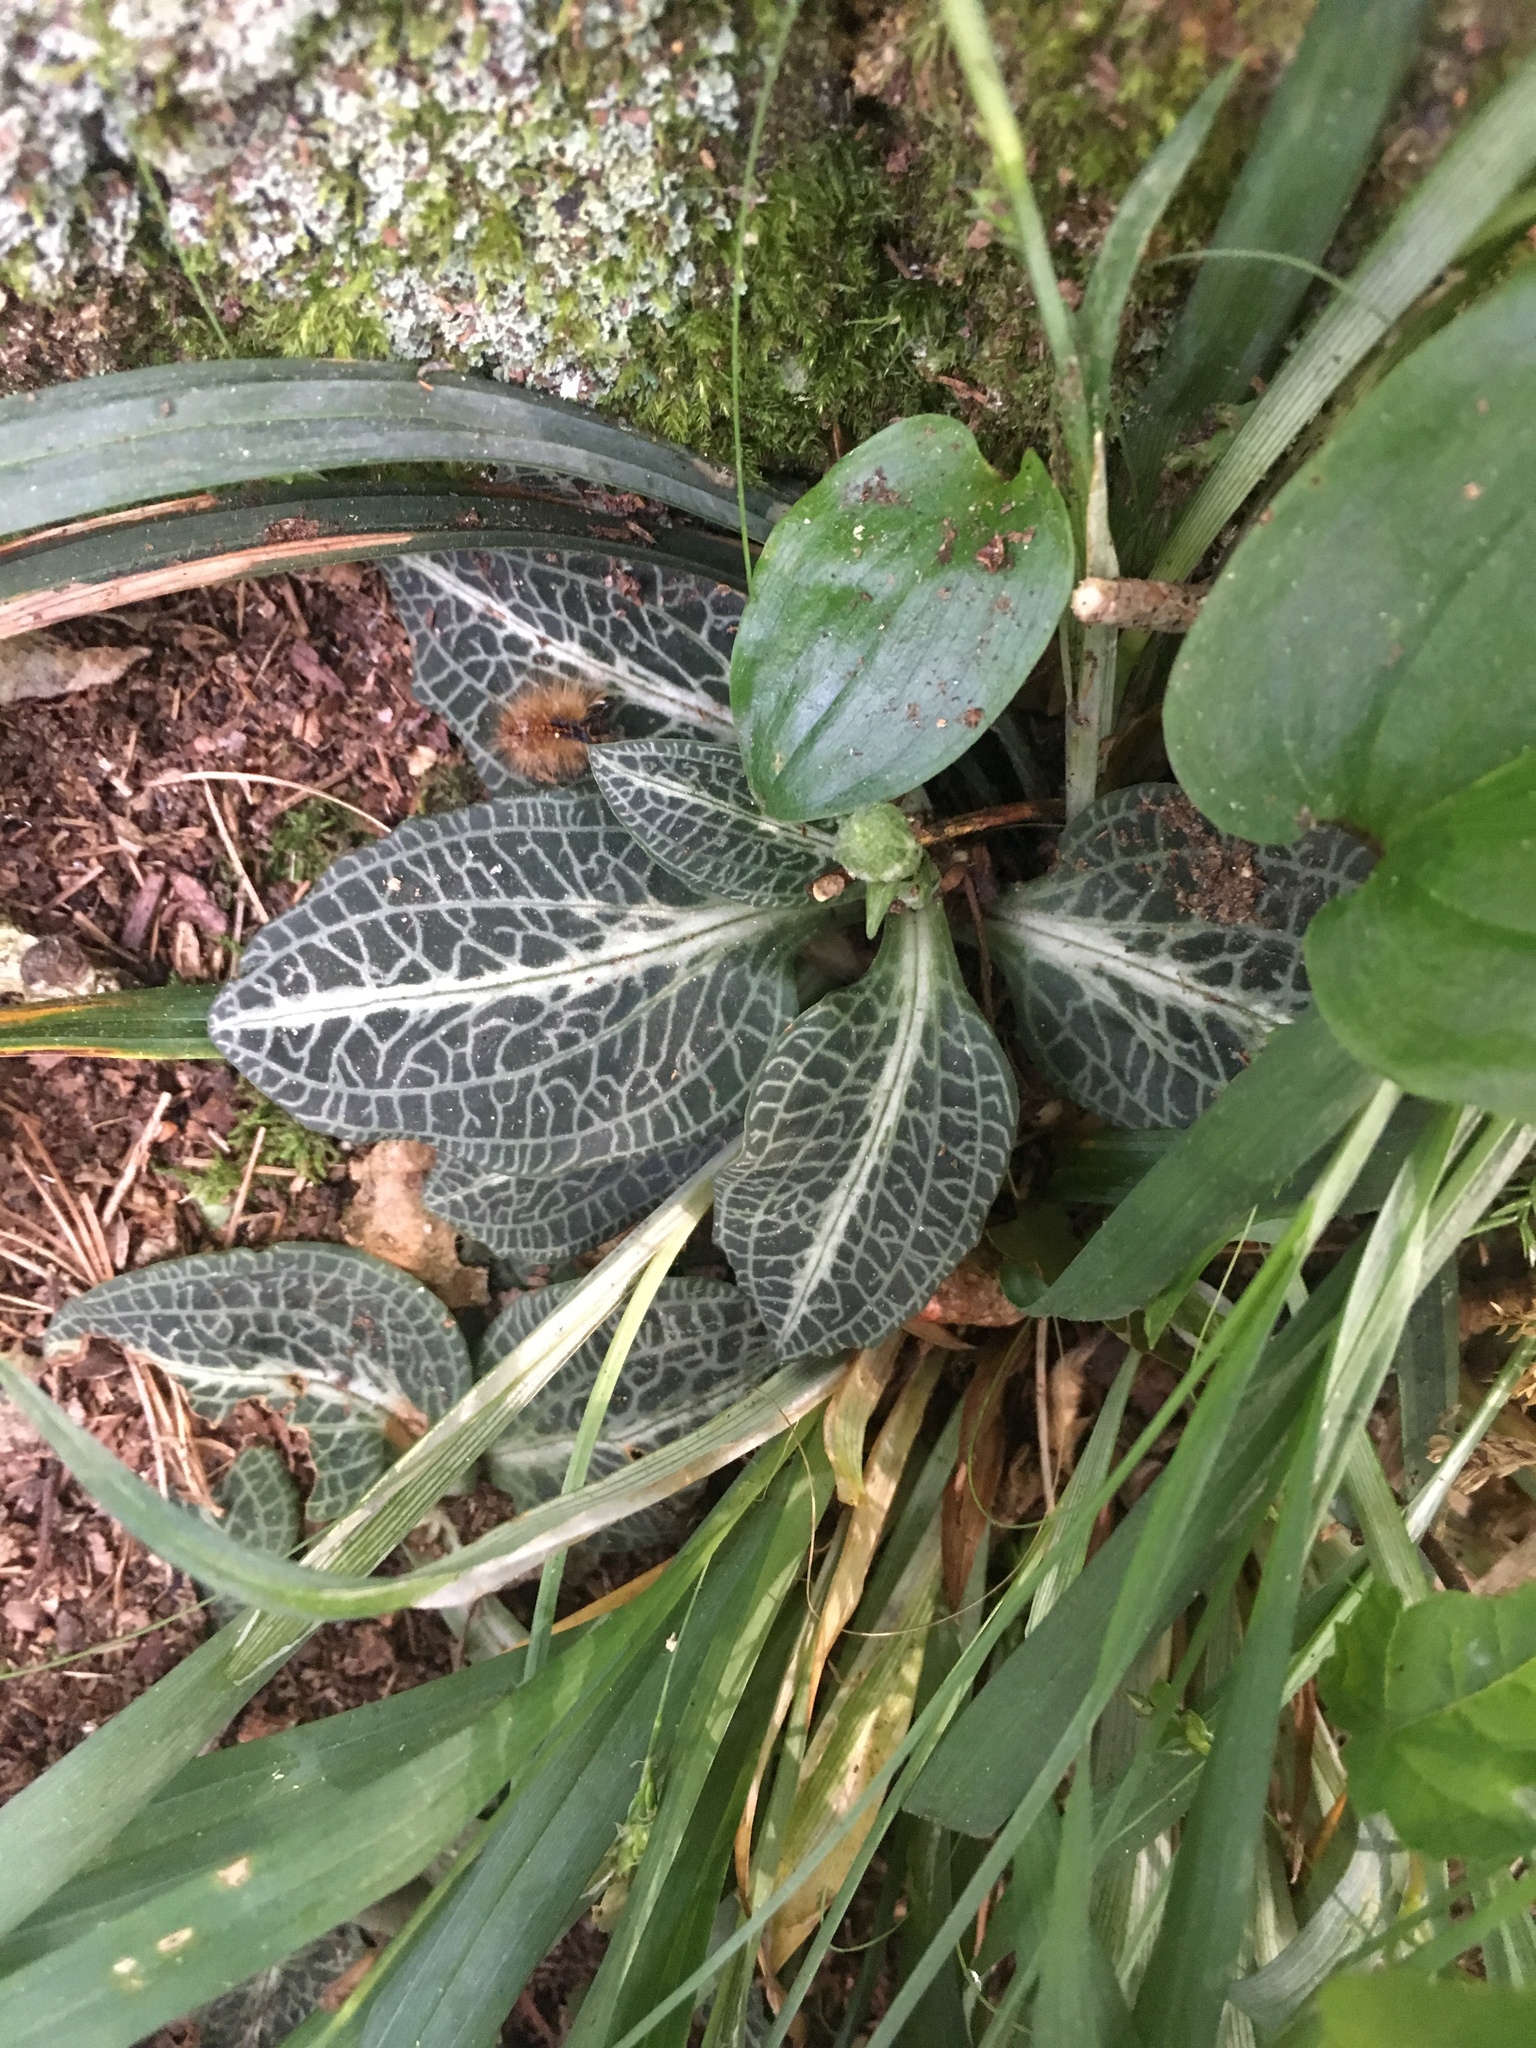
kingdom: Plantae
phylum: Tracheophyta
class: Liliopsida
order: Asparagales
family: Orchidaceae
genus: Goodyera
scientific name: Goodyera pubescens
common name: Downy rattlesnake-plantain
